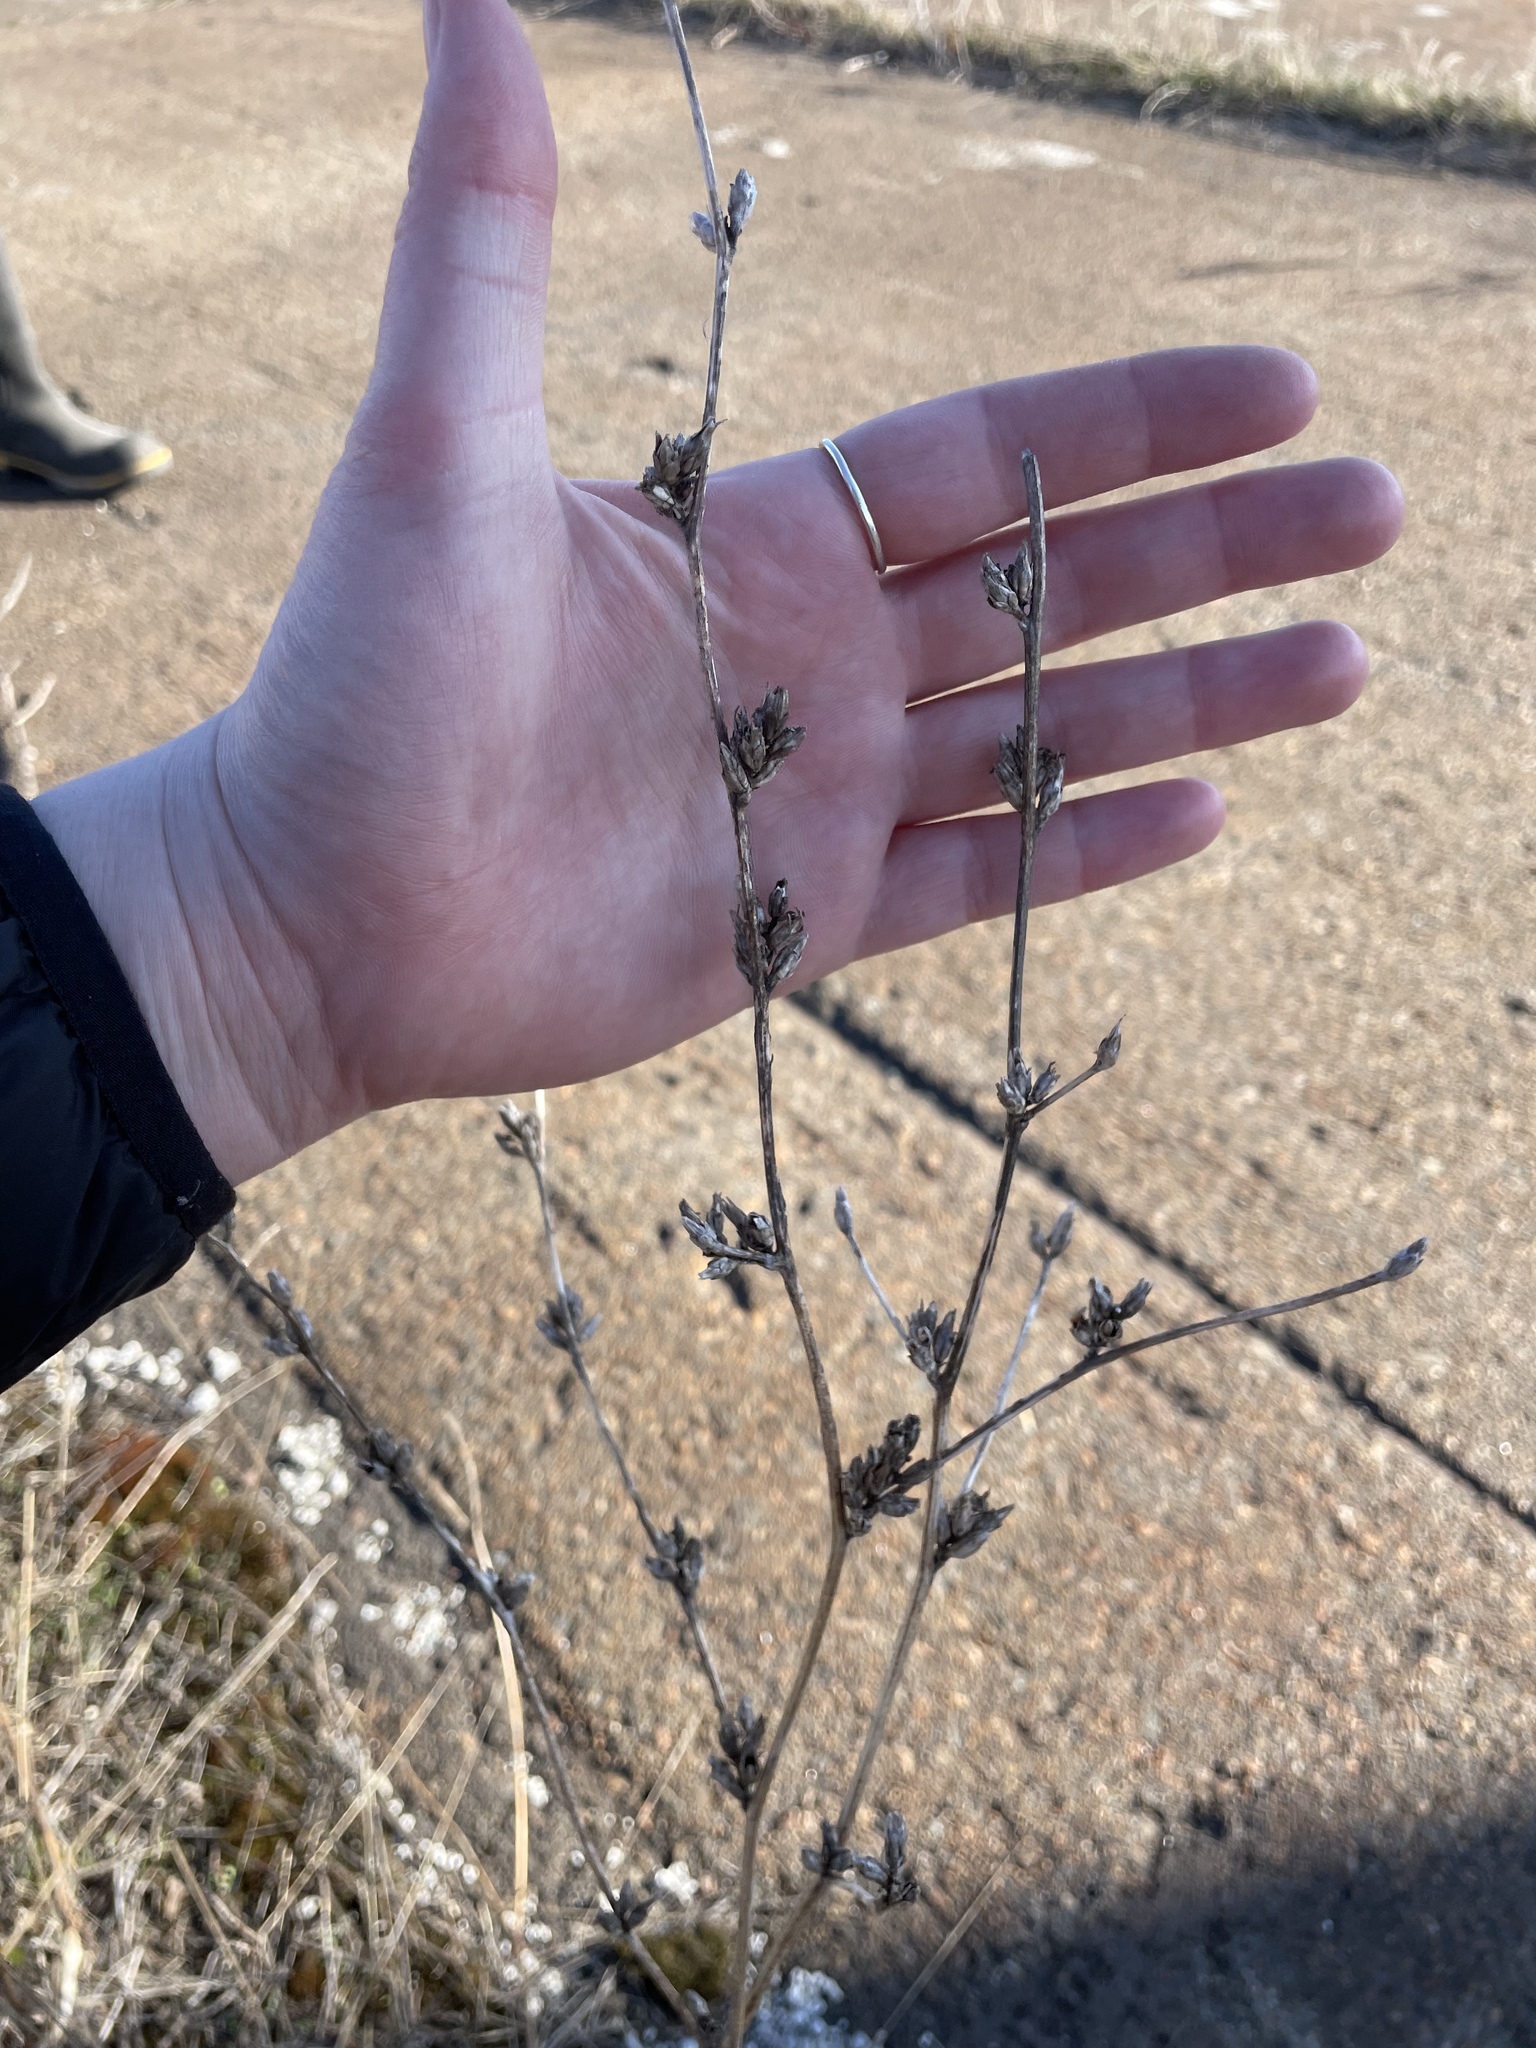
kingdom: Plantae
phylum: Tracheophyta
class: Magnoliopsida
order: Asterales
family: Asteraceae
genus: Cichorium
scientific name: Cichorium intybus
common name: Chicory
